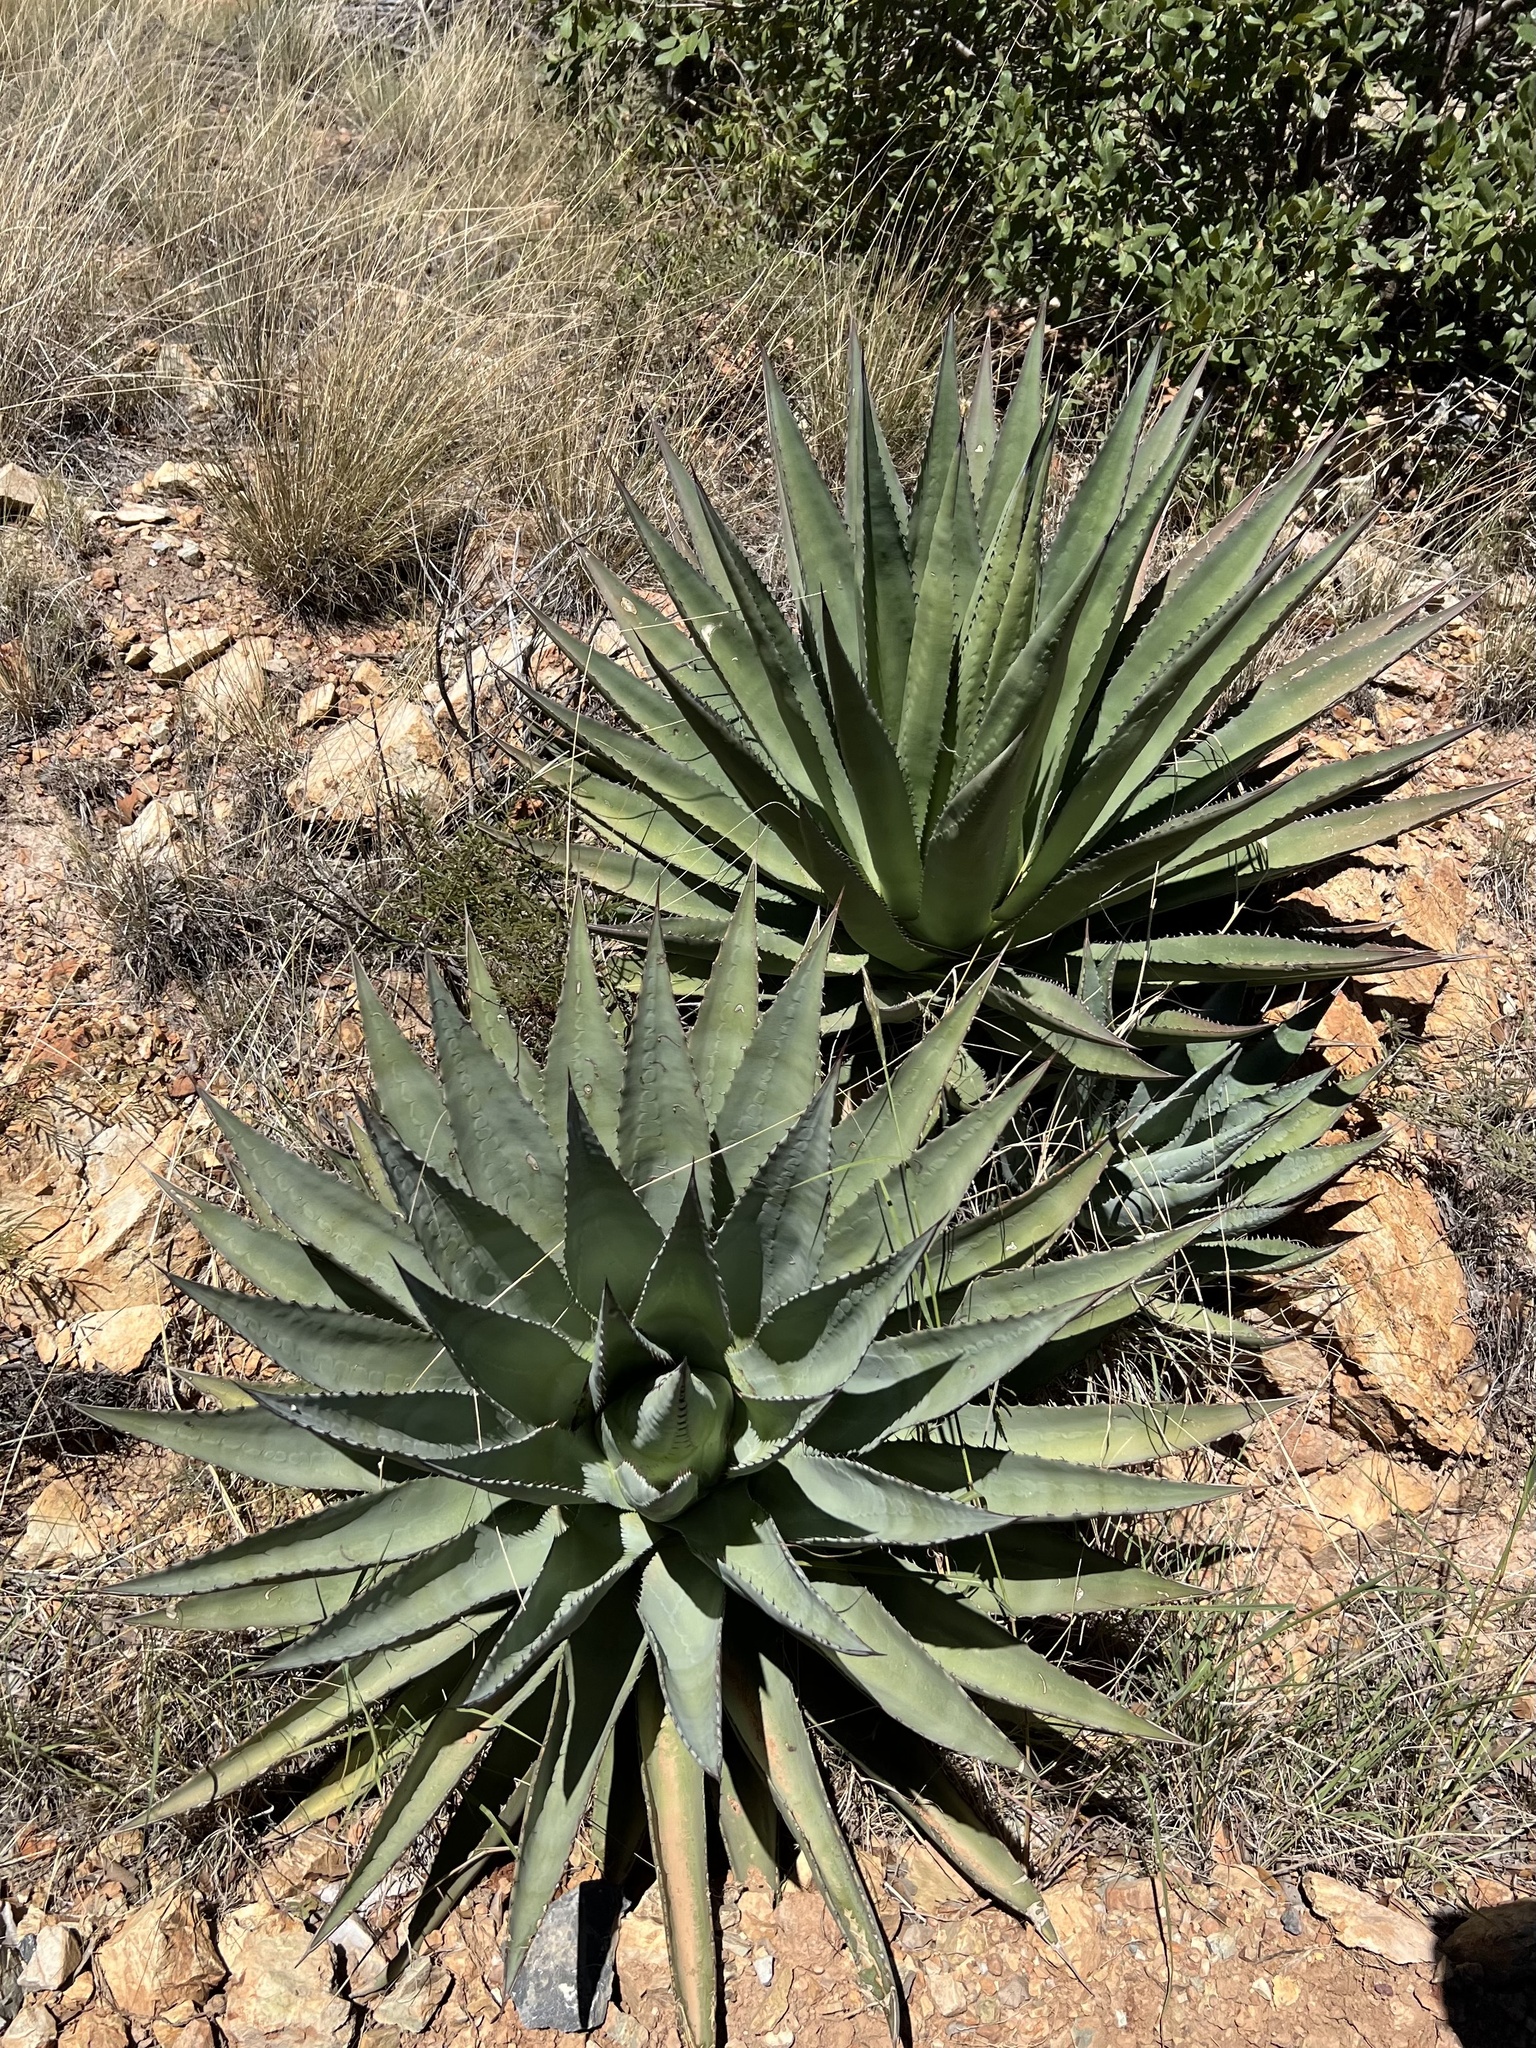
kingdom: Plantae
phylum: Tracheophyta
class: Liliopsida
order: Asparagales
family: Asparagaceae
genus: Agave
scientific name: Agave palmeri
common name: Palmer agave
